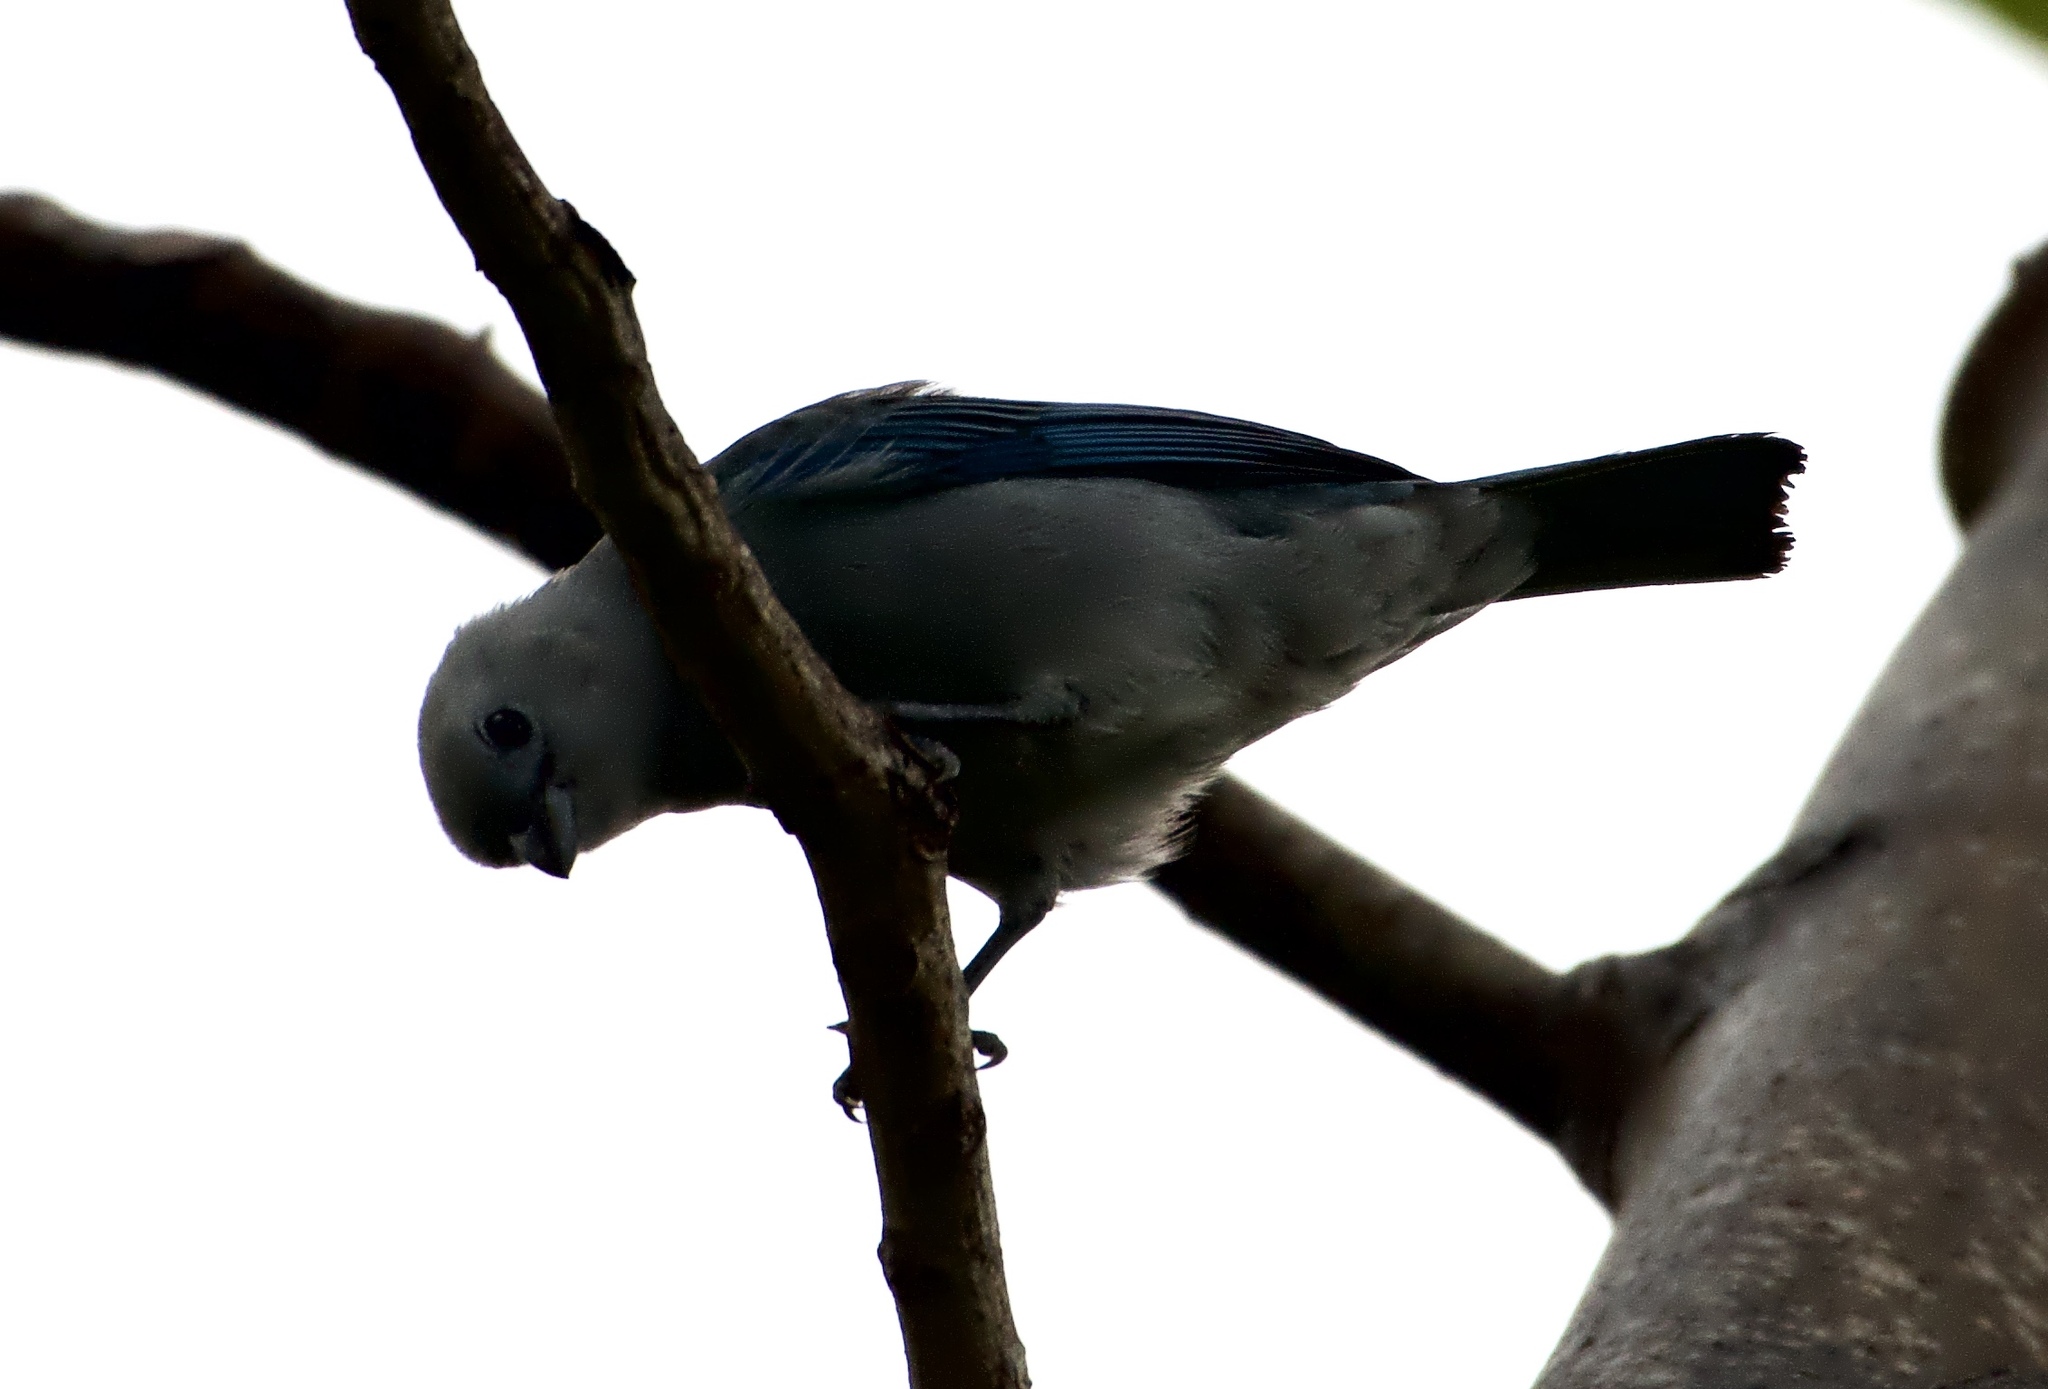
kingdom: Animalia
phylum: Chordata
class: Aves
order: Psittaciformes
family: Psittacidae
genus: Brotogeris
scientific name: Brotogeris jugularis
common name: Orange-chinned parakeet
